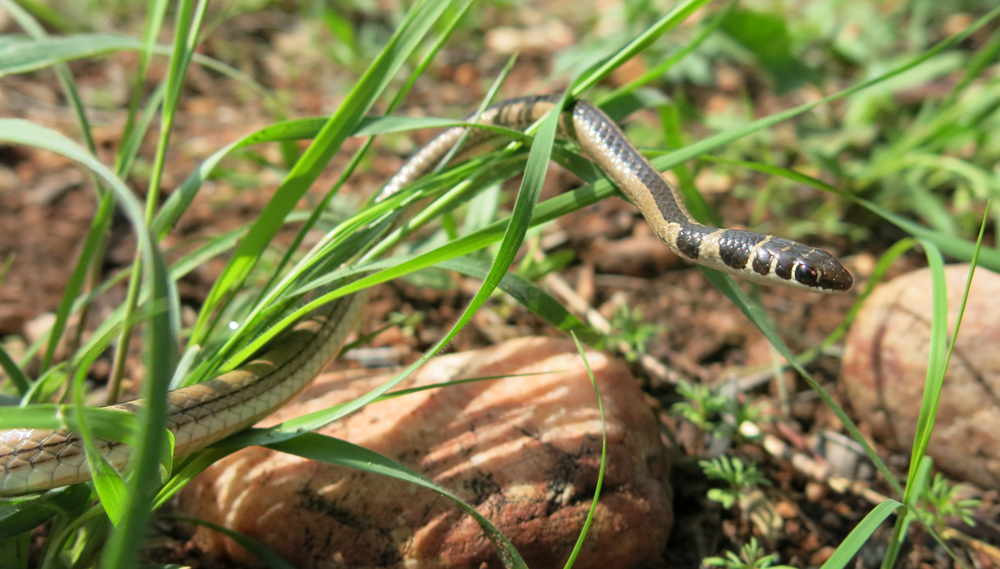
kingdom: Animalia
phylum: Chordata
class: Squamata
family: Psammophiidae
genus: Psammophis
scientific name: Psammophis angolensis
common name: Dwarf sand snake
